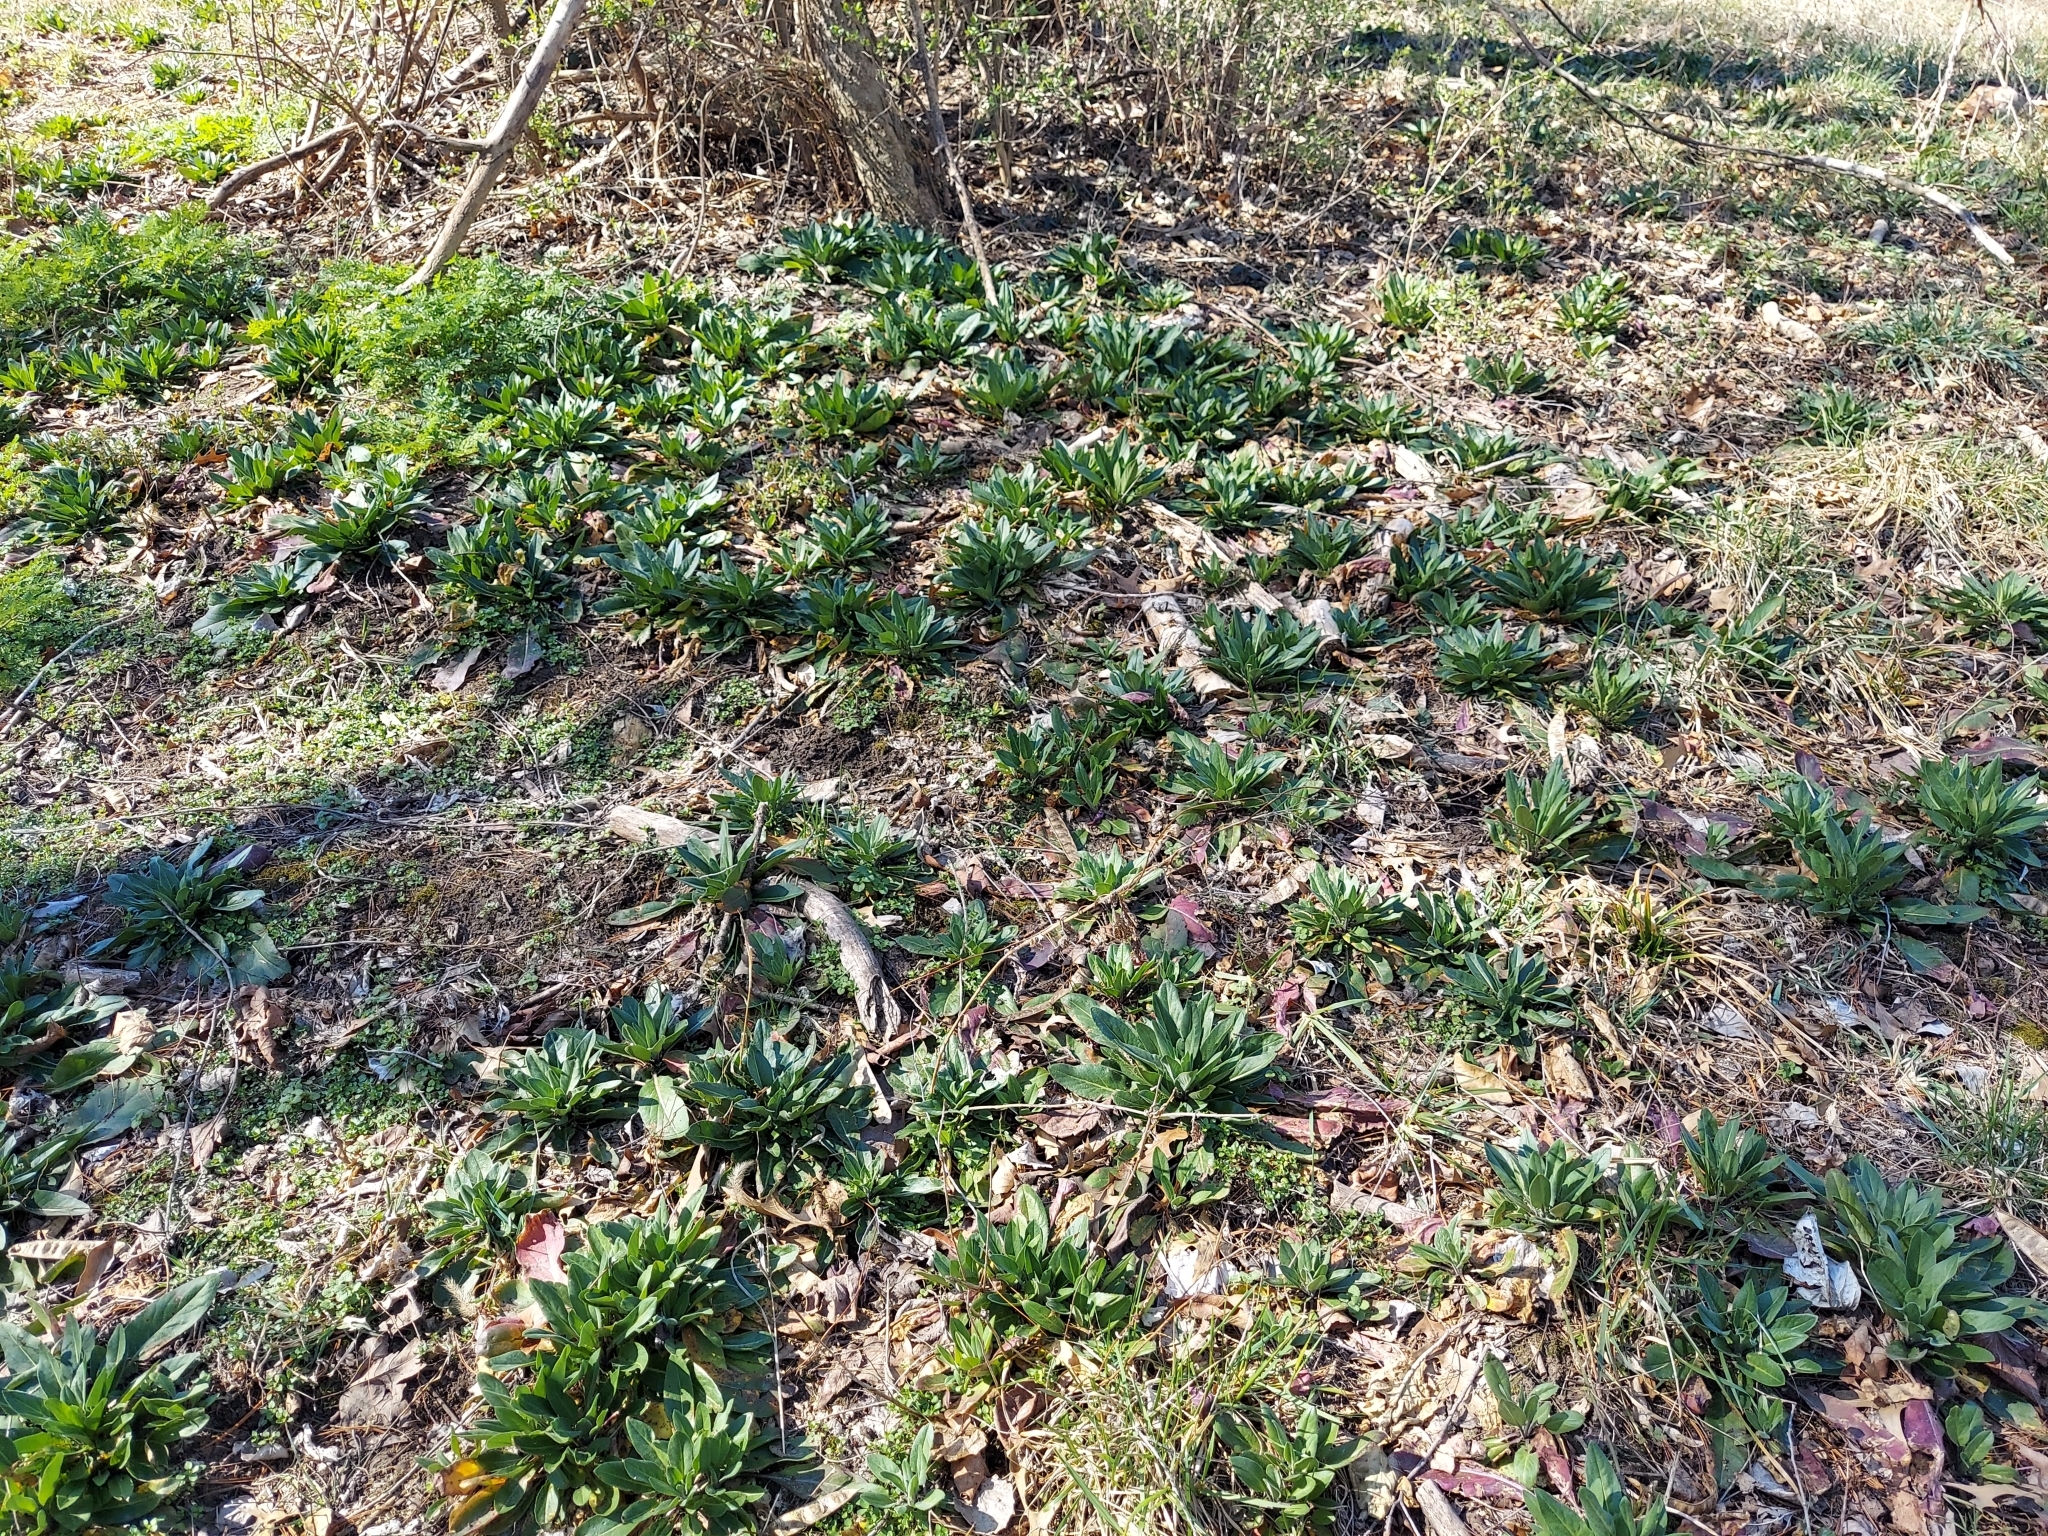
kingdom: Plantae
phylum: Tracheophyta
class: Magnoliopsida
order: Brassicales
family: Brassicaceae
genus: Hesperis
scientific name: Hesperis matronalis
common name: Dame's-violet
